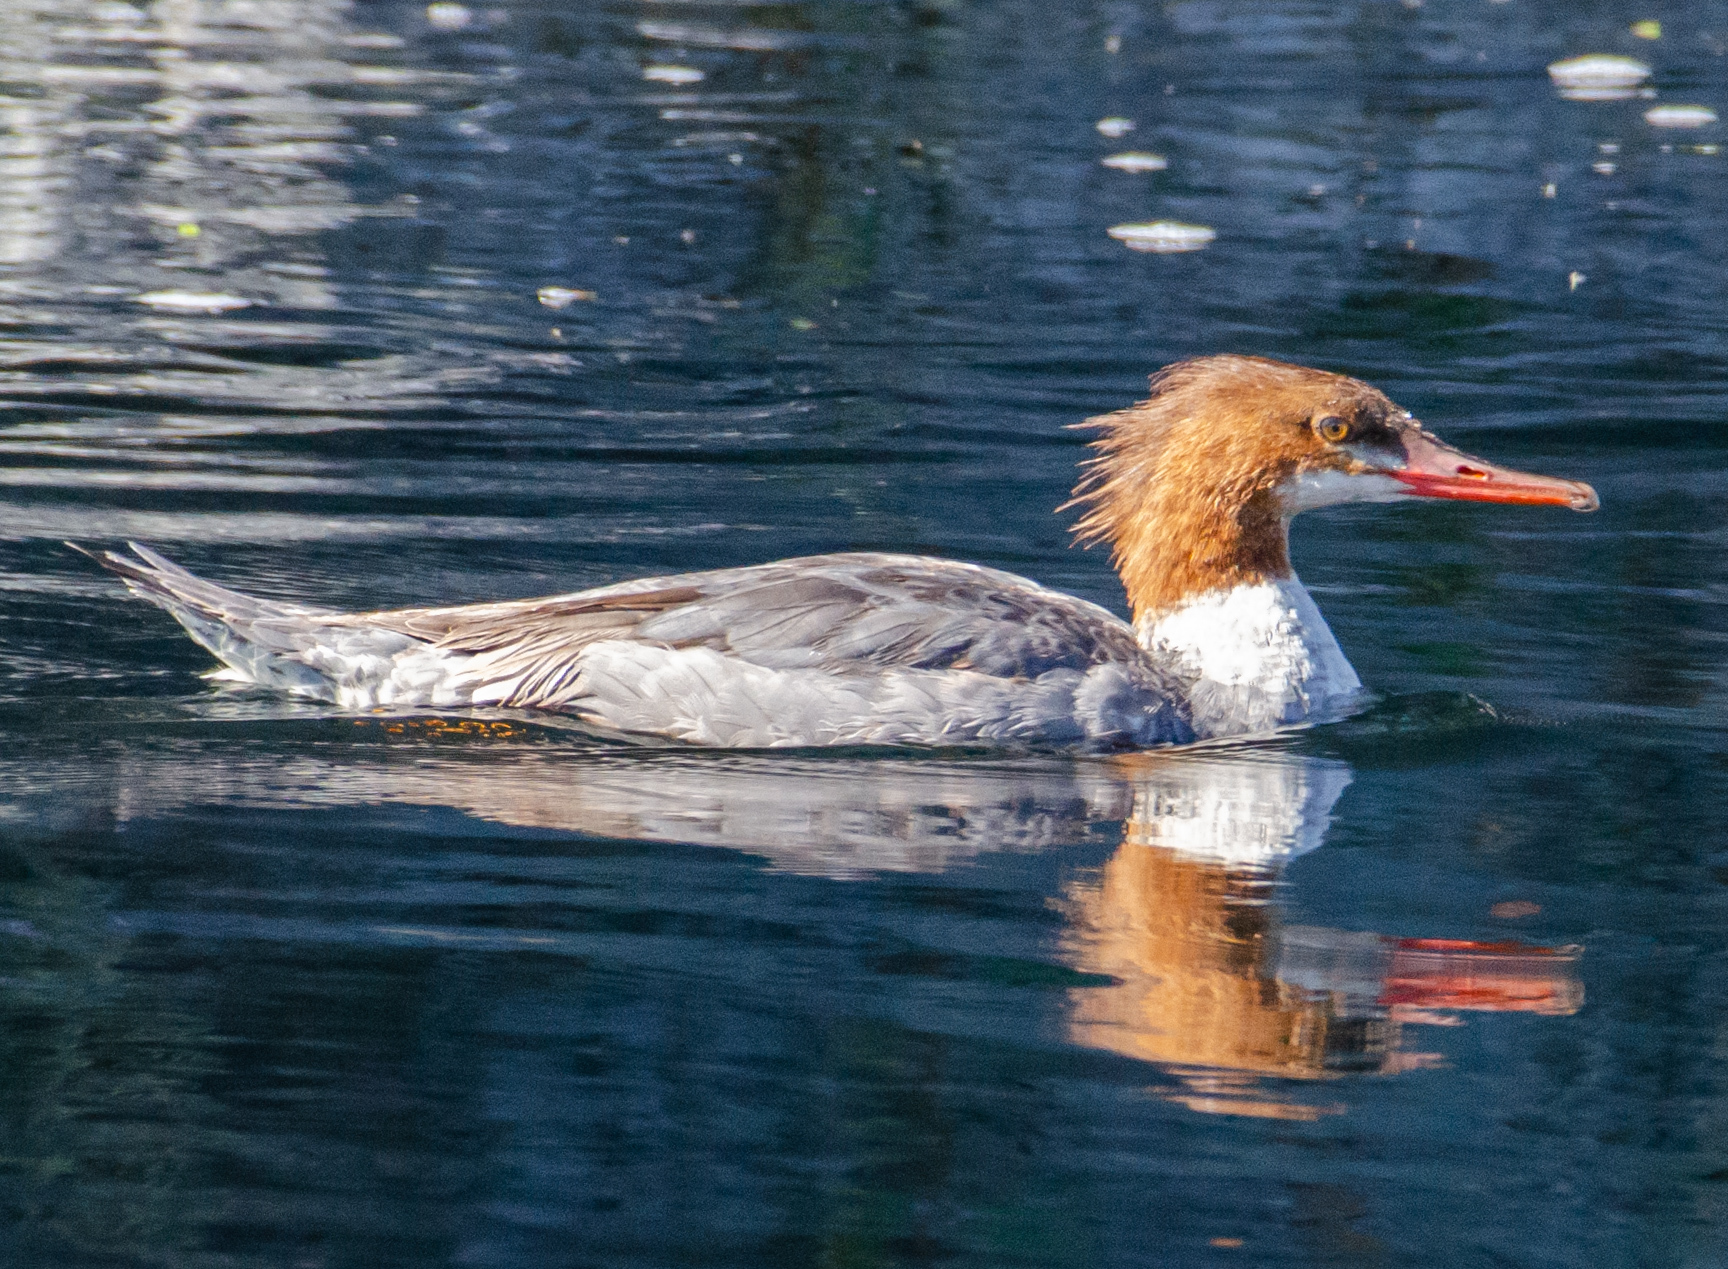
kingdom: Animalia
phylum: Chordata
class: Aves
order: Anseriformes
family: Anatidae
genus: Mergus
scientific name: Mergus merganser
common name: Common merganser
